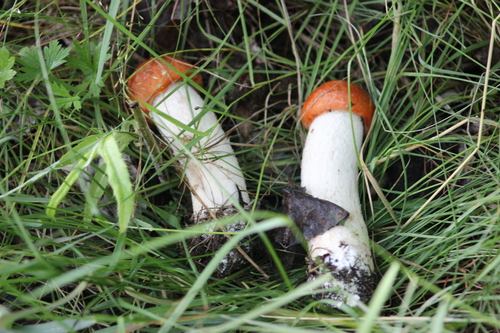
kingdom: Fungi
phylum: Basidiomycota
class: Agaricomycetes
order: Boletales
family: Boletaceae
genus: Leccinum
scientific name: Leccinum albostipitatum
